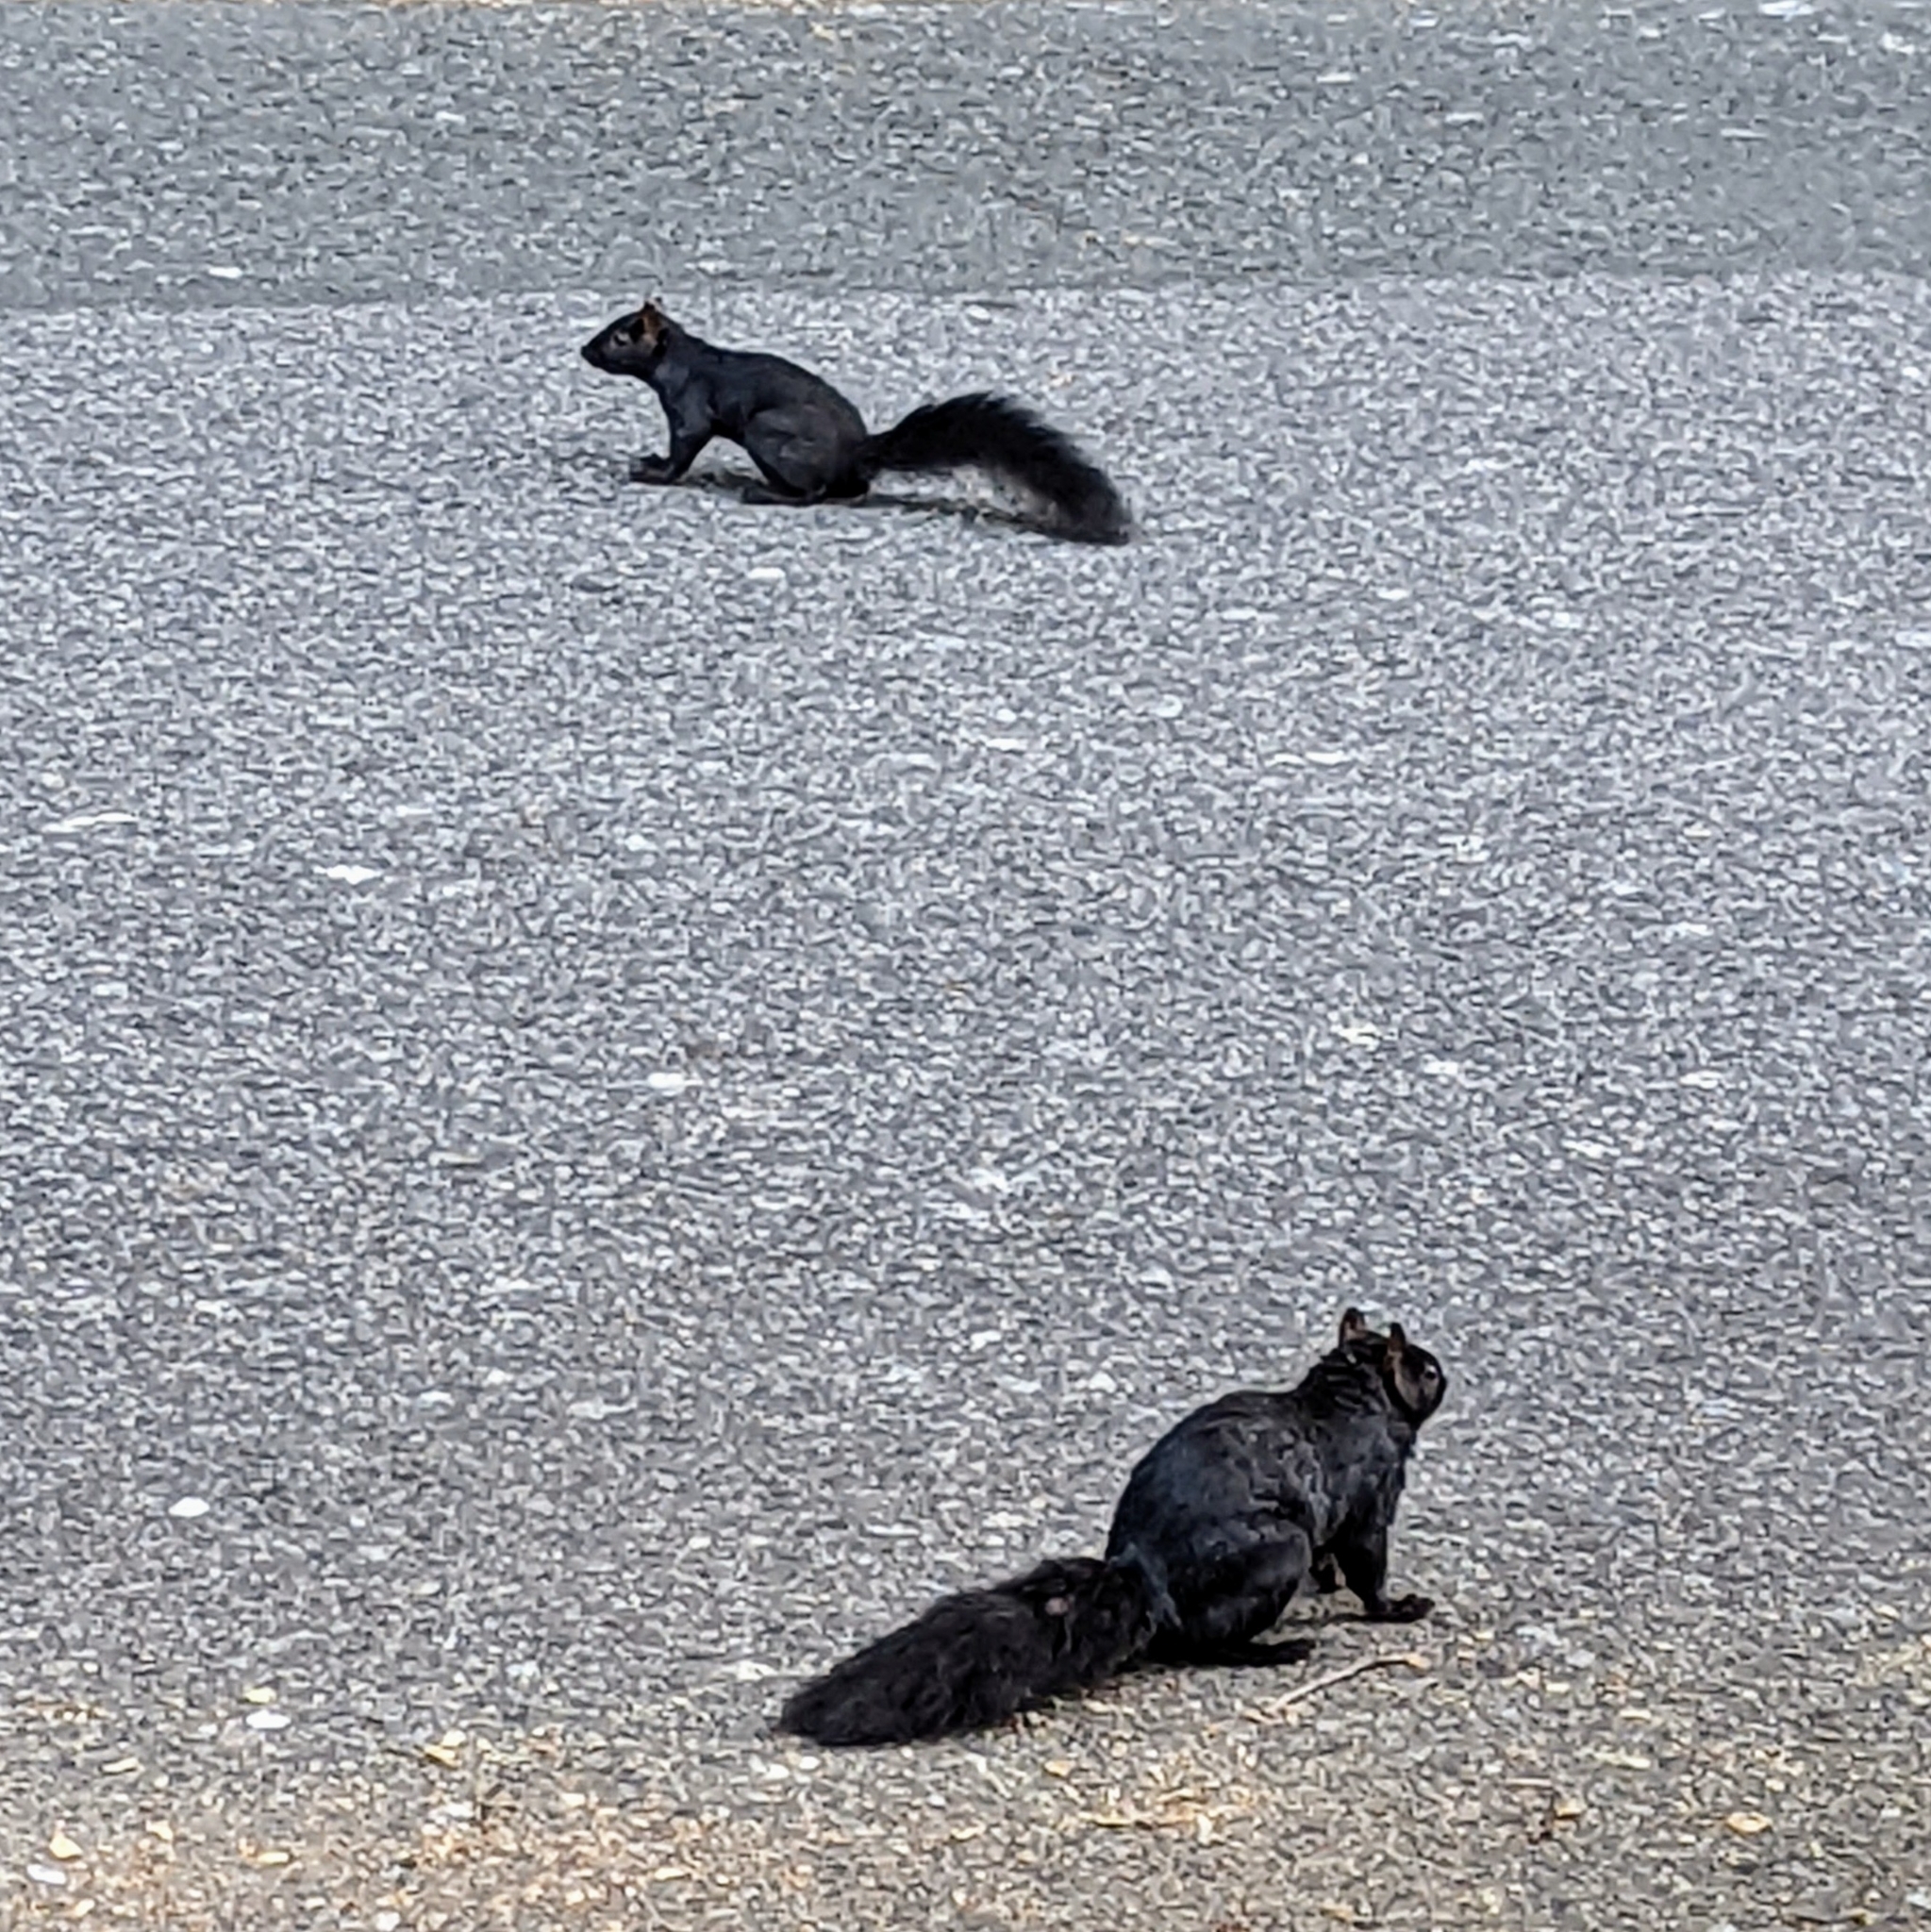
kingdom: Animalia
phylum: Chordata
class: Mammalia
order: Rodentia
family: Sciuridae
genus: Sciurus
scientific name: Sciurus carolinensis
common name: Eastern gray squirrel
